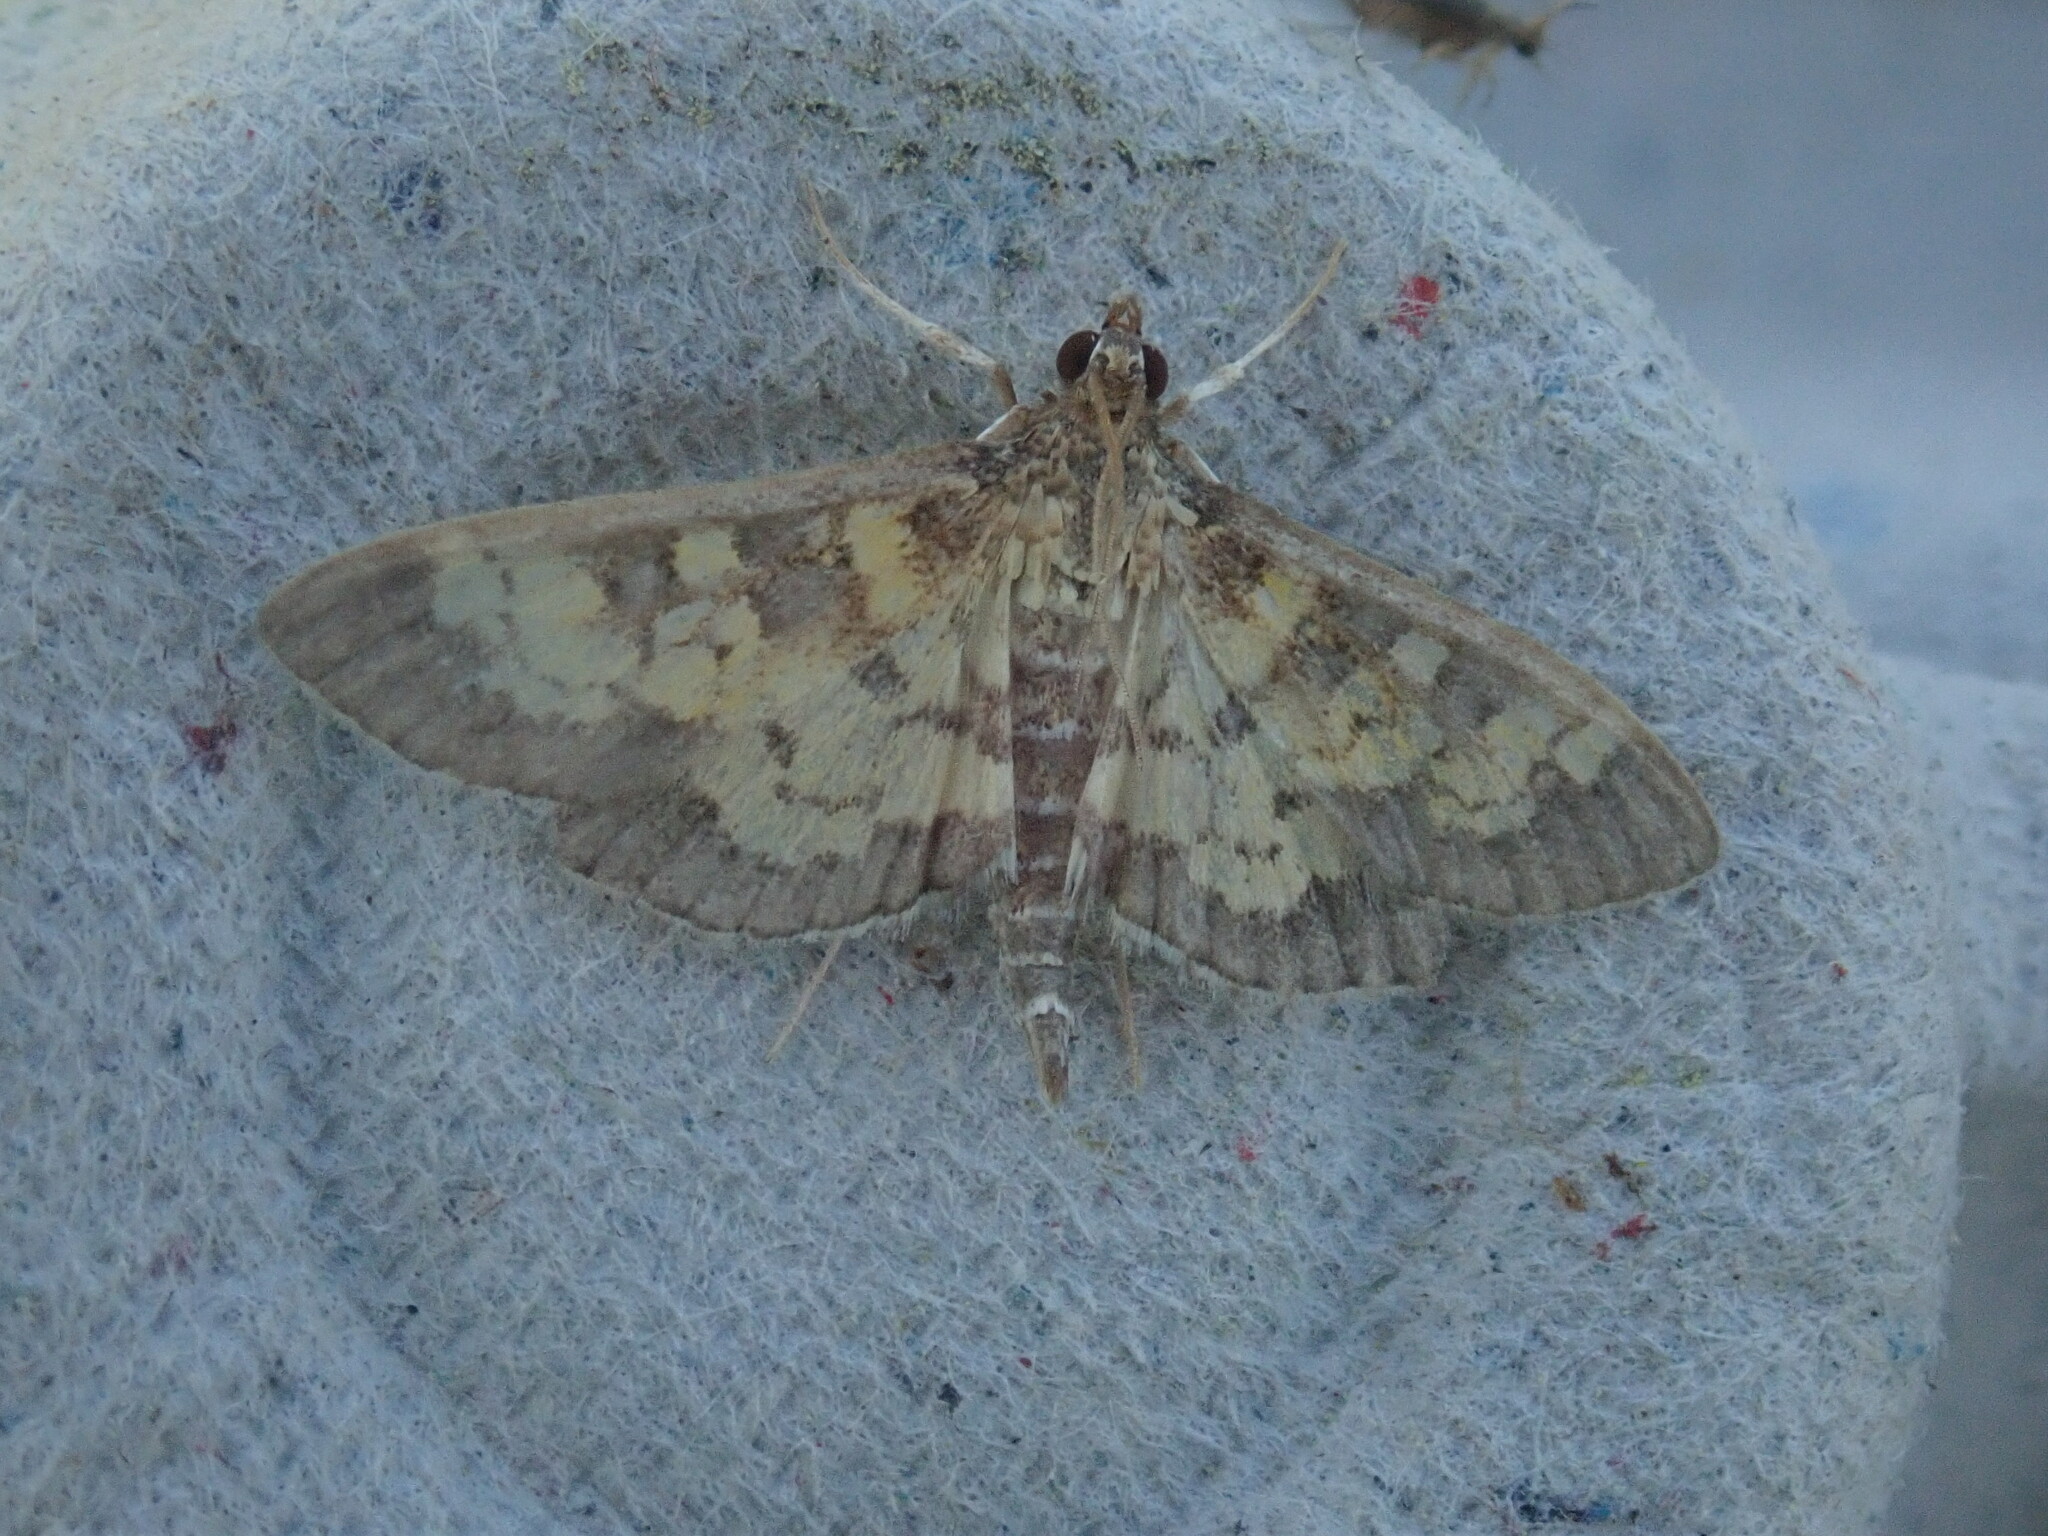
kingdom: Animalia
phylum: Arthropoda
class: Insecta
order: Lepidoptera
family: Crambidae
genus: Epipagis
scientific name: Epipagis adipaloides
